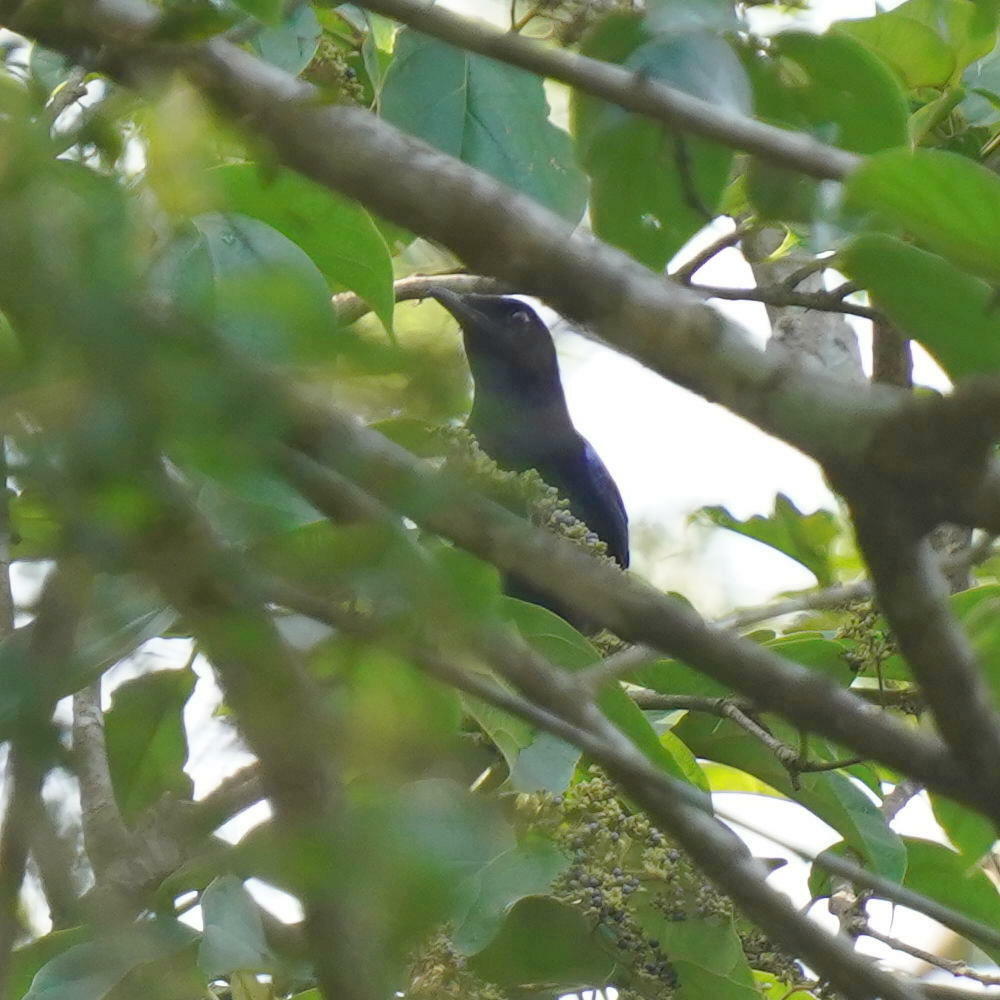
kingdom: Animalia
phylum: Chordata
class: Aves
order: Passeriformes
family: Muscicapidae
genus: Myophonus
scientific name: Myophonus horsfieldii
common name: Malabar whistling-thrush
